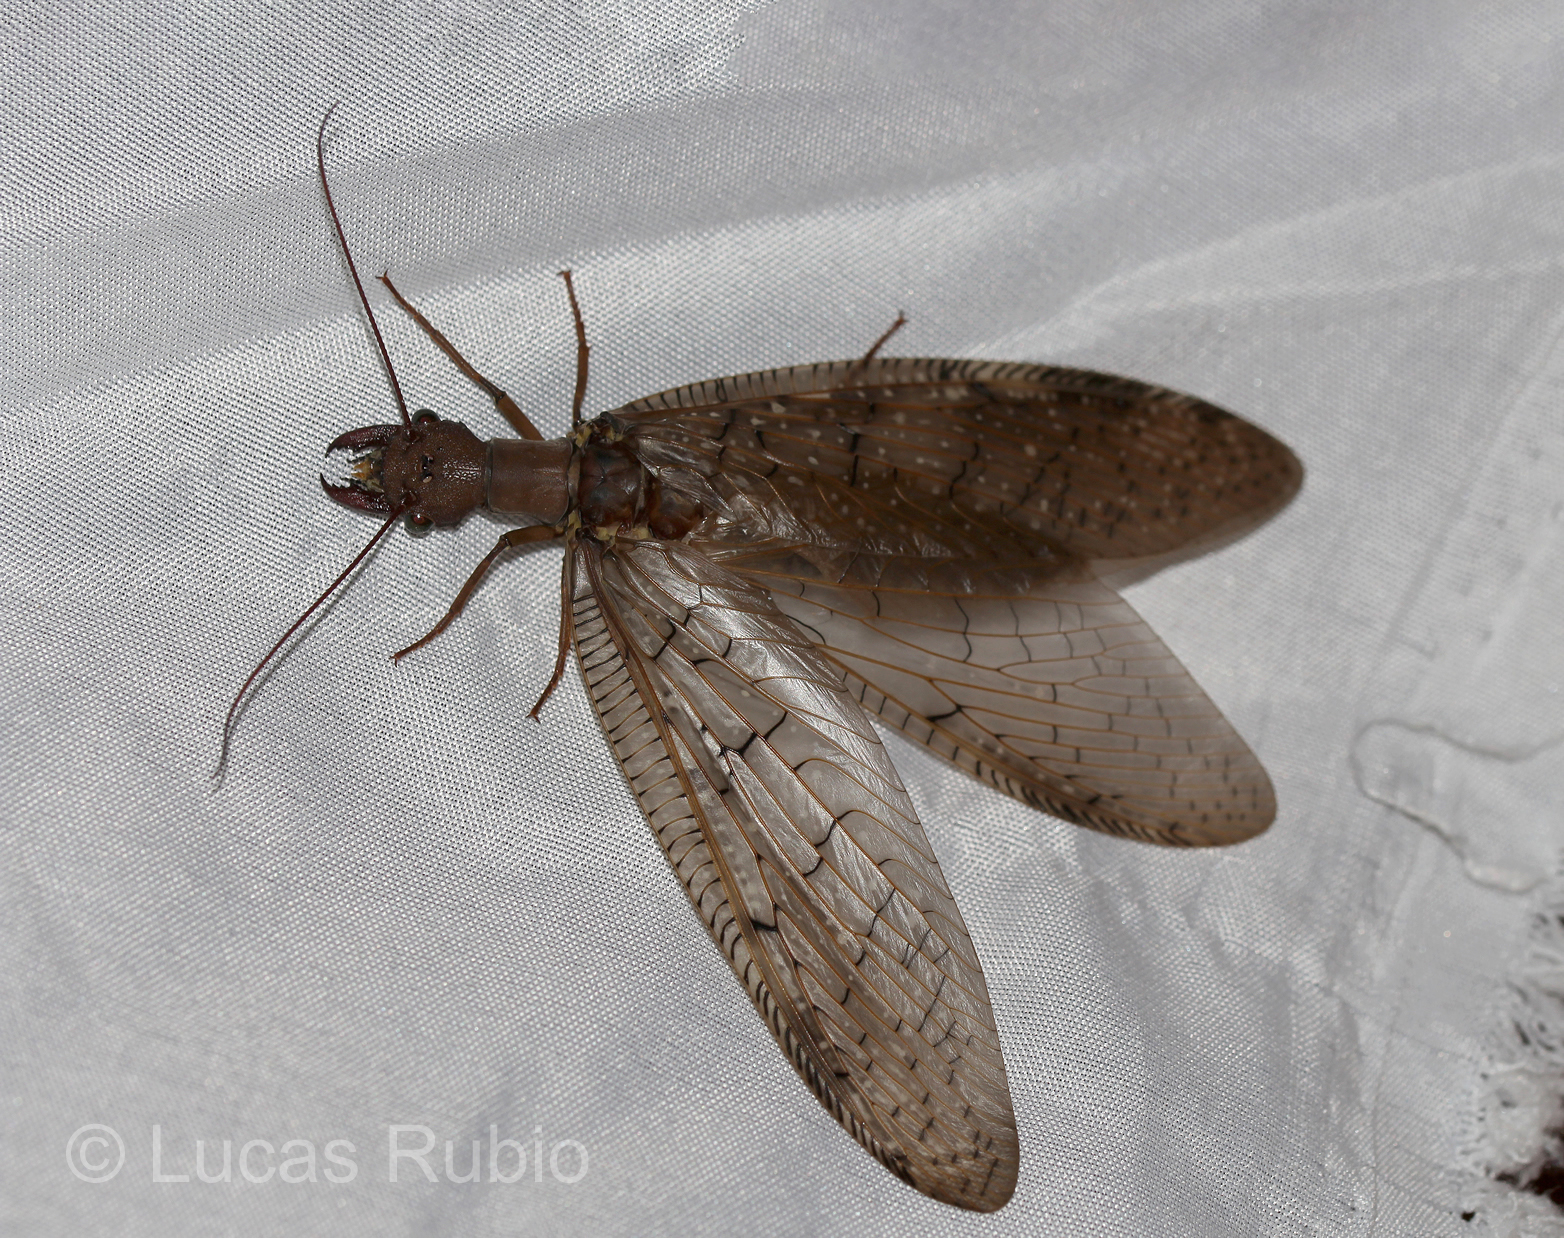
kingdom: Animalia
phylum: Arthropoda
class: Insecta
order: Megaloptera
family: Corydalidae
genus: Corydalus
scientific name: Corydalus australis
